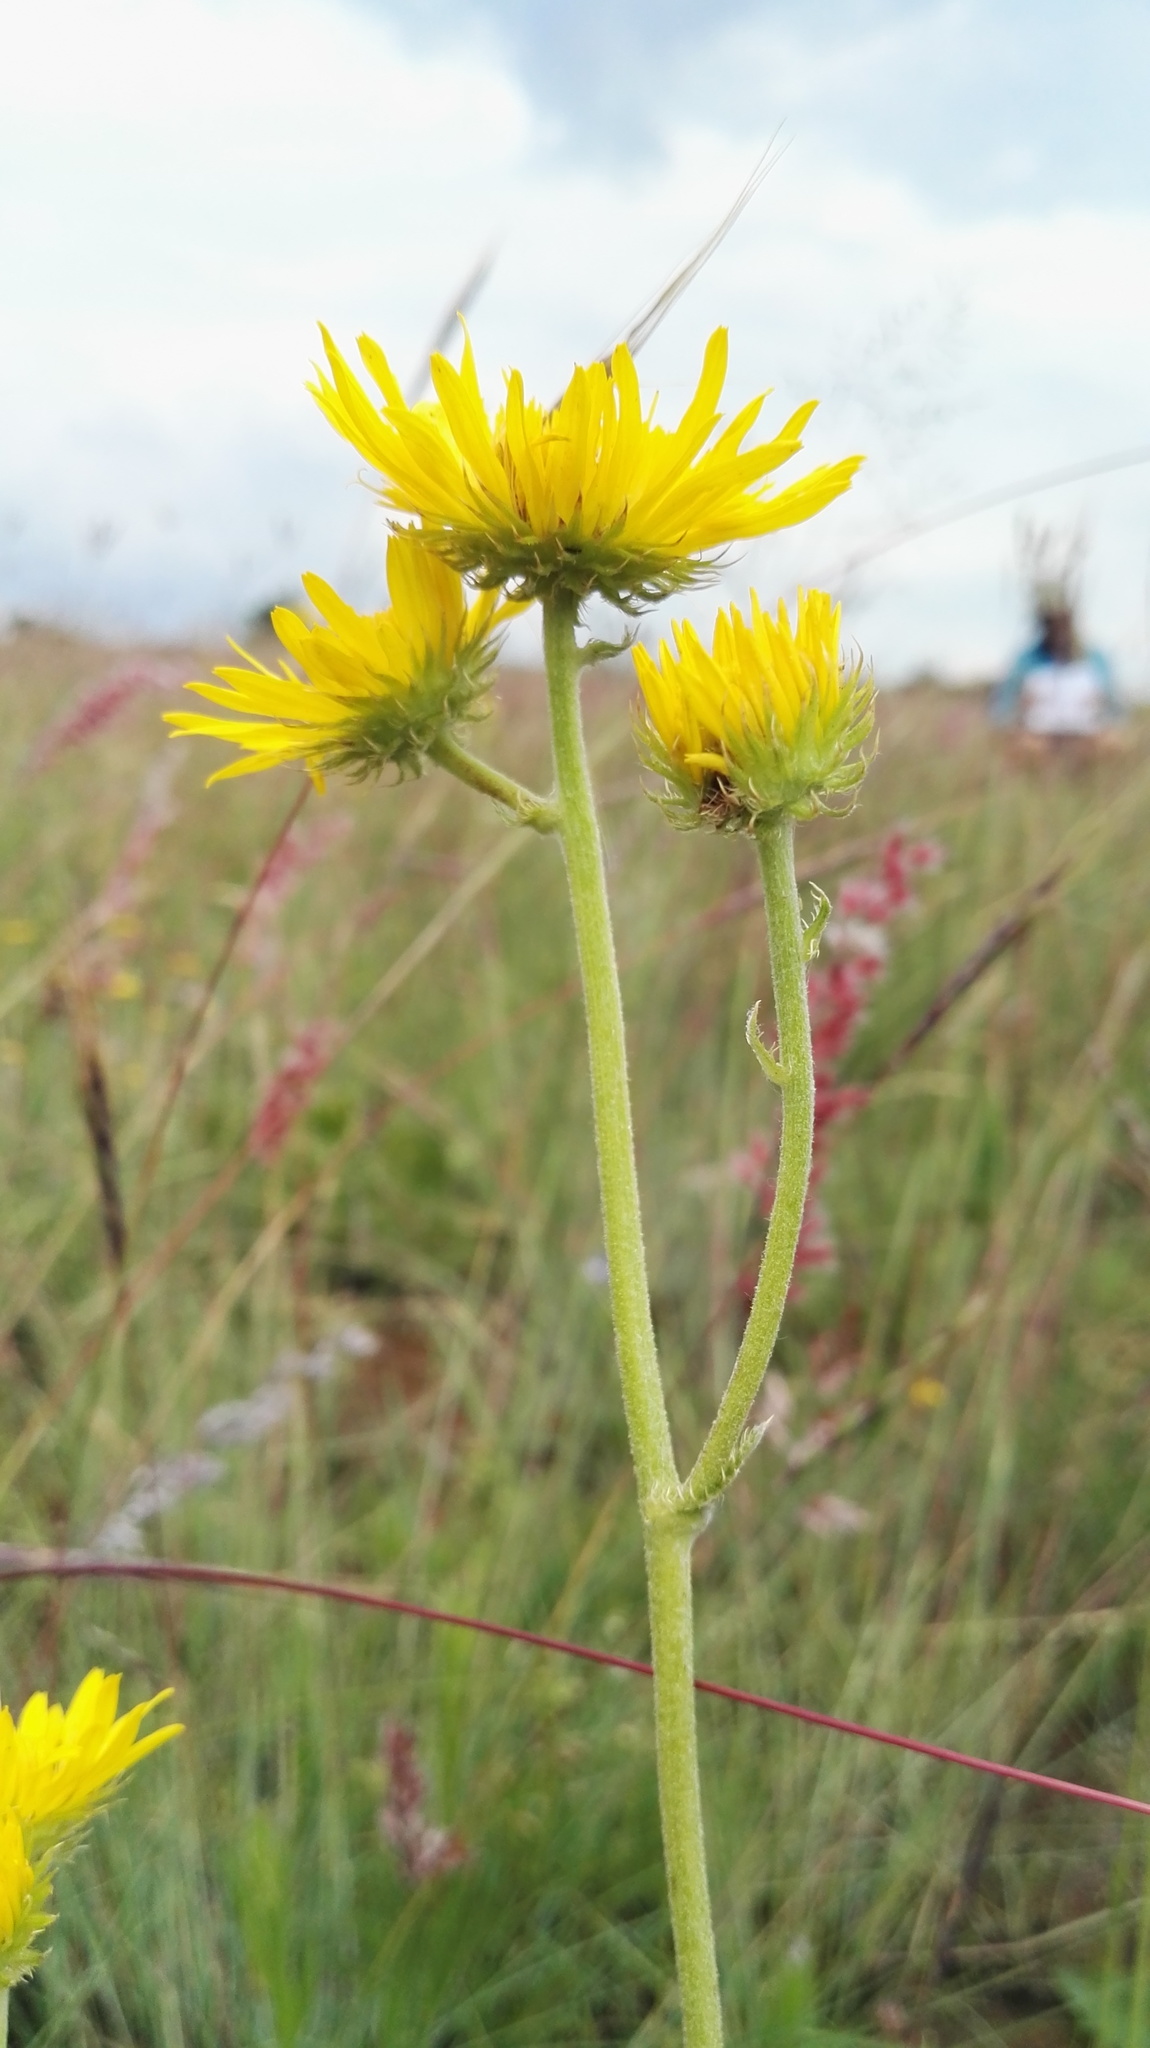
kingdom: Plantae
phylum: Tracheophyta
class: Magnoliopsida
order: Asterales
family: Asteraceae
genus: Berkheya
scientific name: Berkheya setifera
